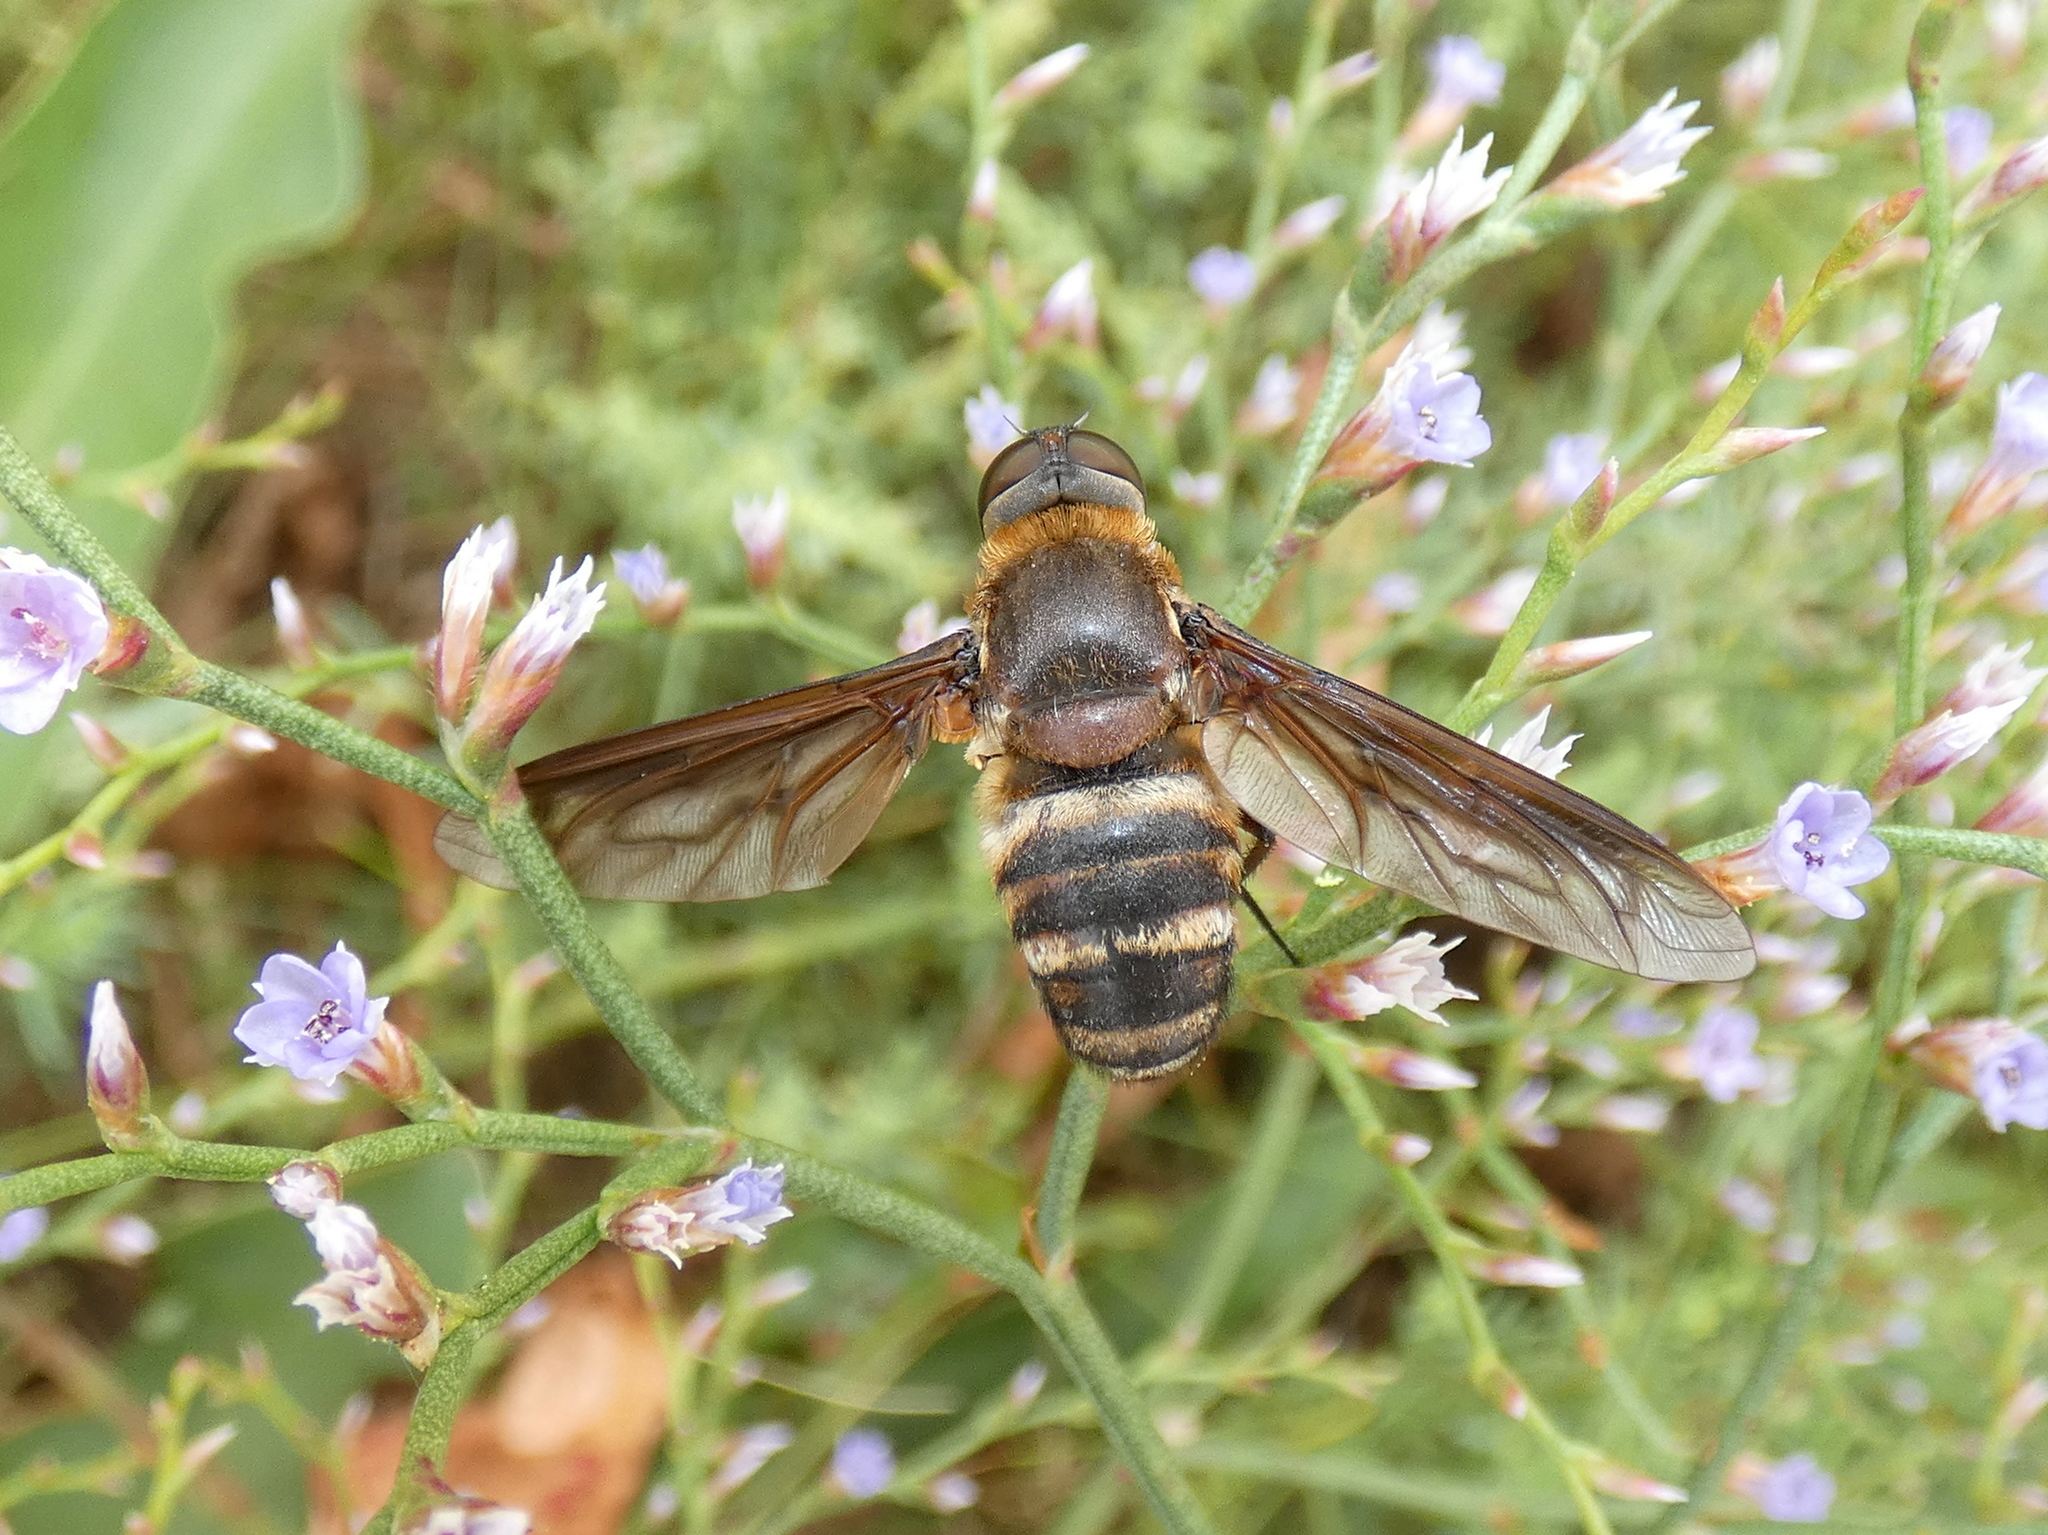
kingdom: Animalia
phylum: Arthropoda
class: Insecta
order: Diptera
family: Bombyliidae
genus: Exoprosopa
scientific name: Exoprosopa fasciata
